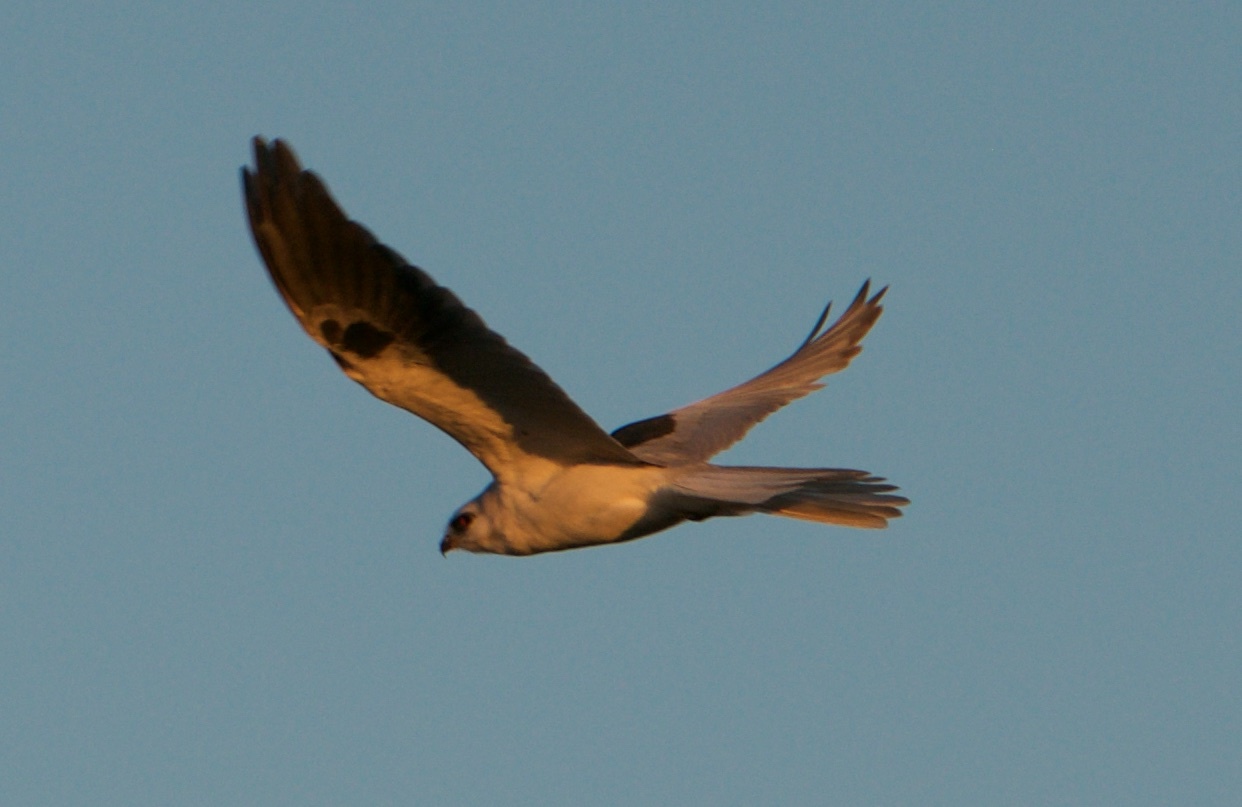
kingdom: Animalia
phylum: Chordata
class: Aves
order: Accipitriformes
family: Accipitridae
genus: Elanus
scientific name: Elanus leucurus
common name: White-tailed kite
